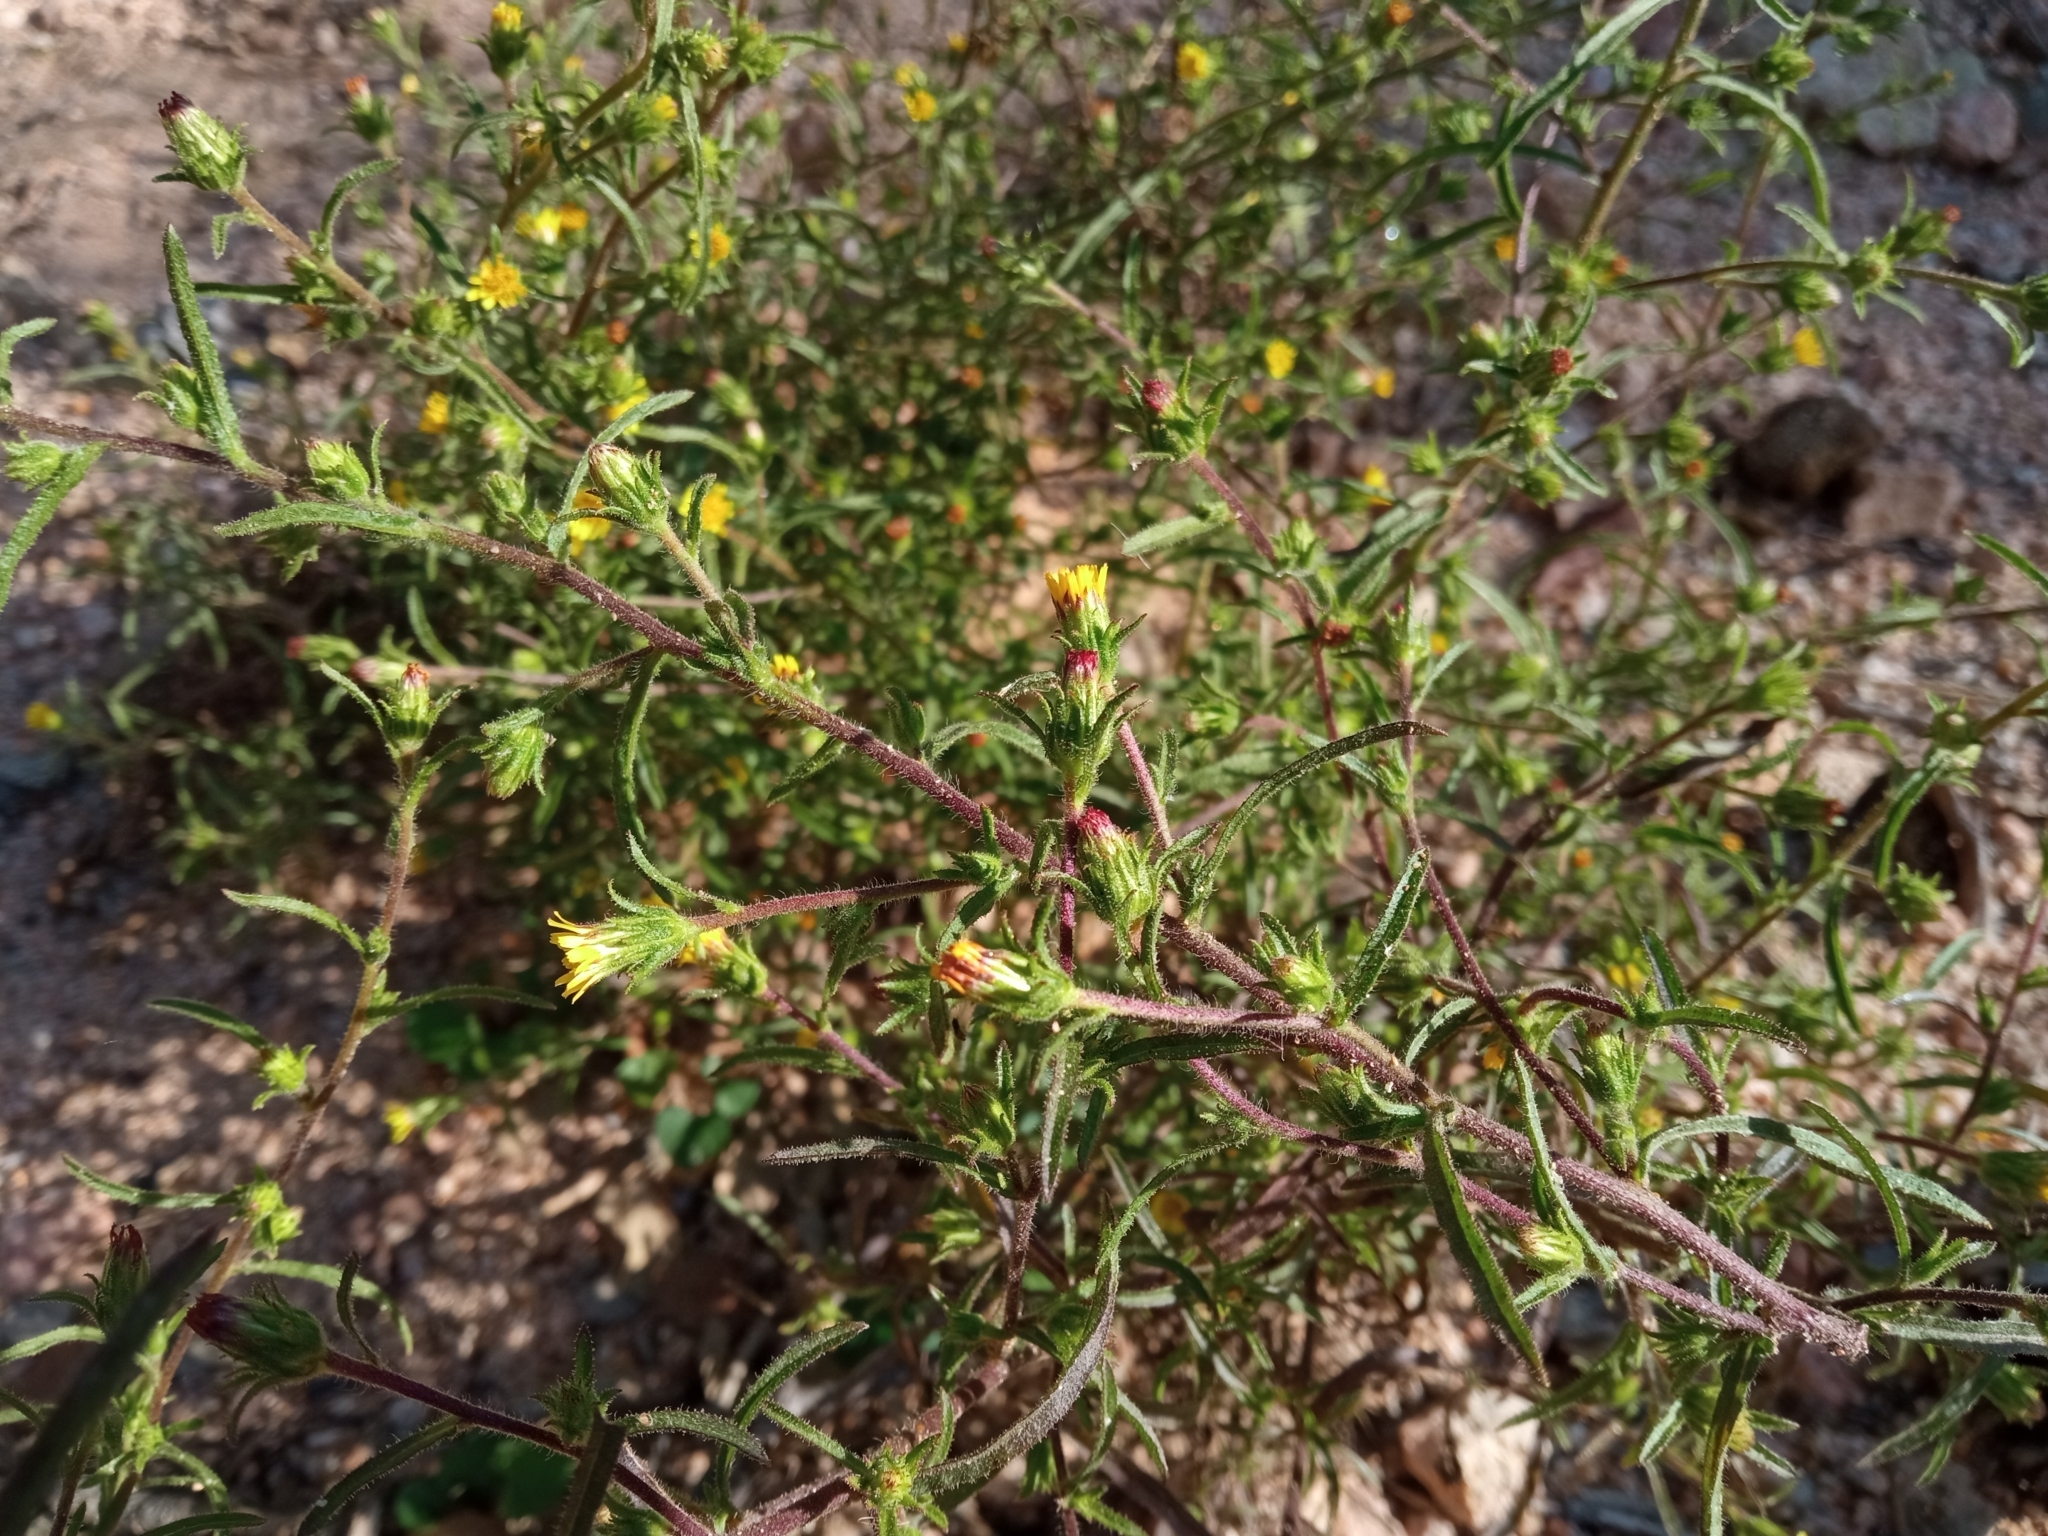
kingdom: Plantae
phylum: Tracheophyta
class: Magnoliopsida
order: Asterales
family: Asteraceae
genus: Dittrichia
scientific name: Dittrichia graveolens
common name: Stinking fleabane
